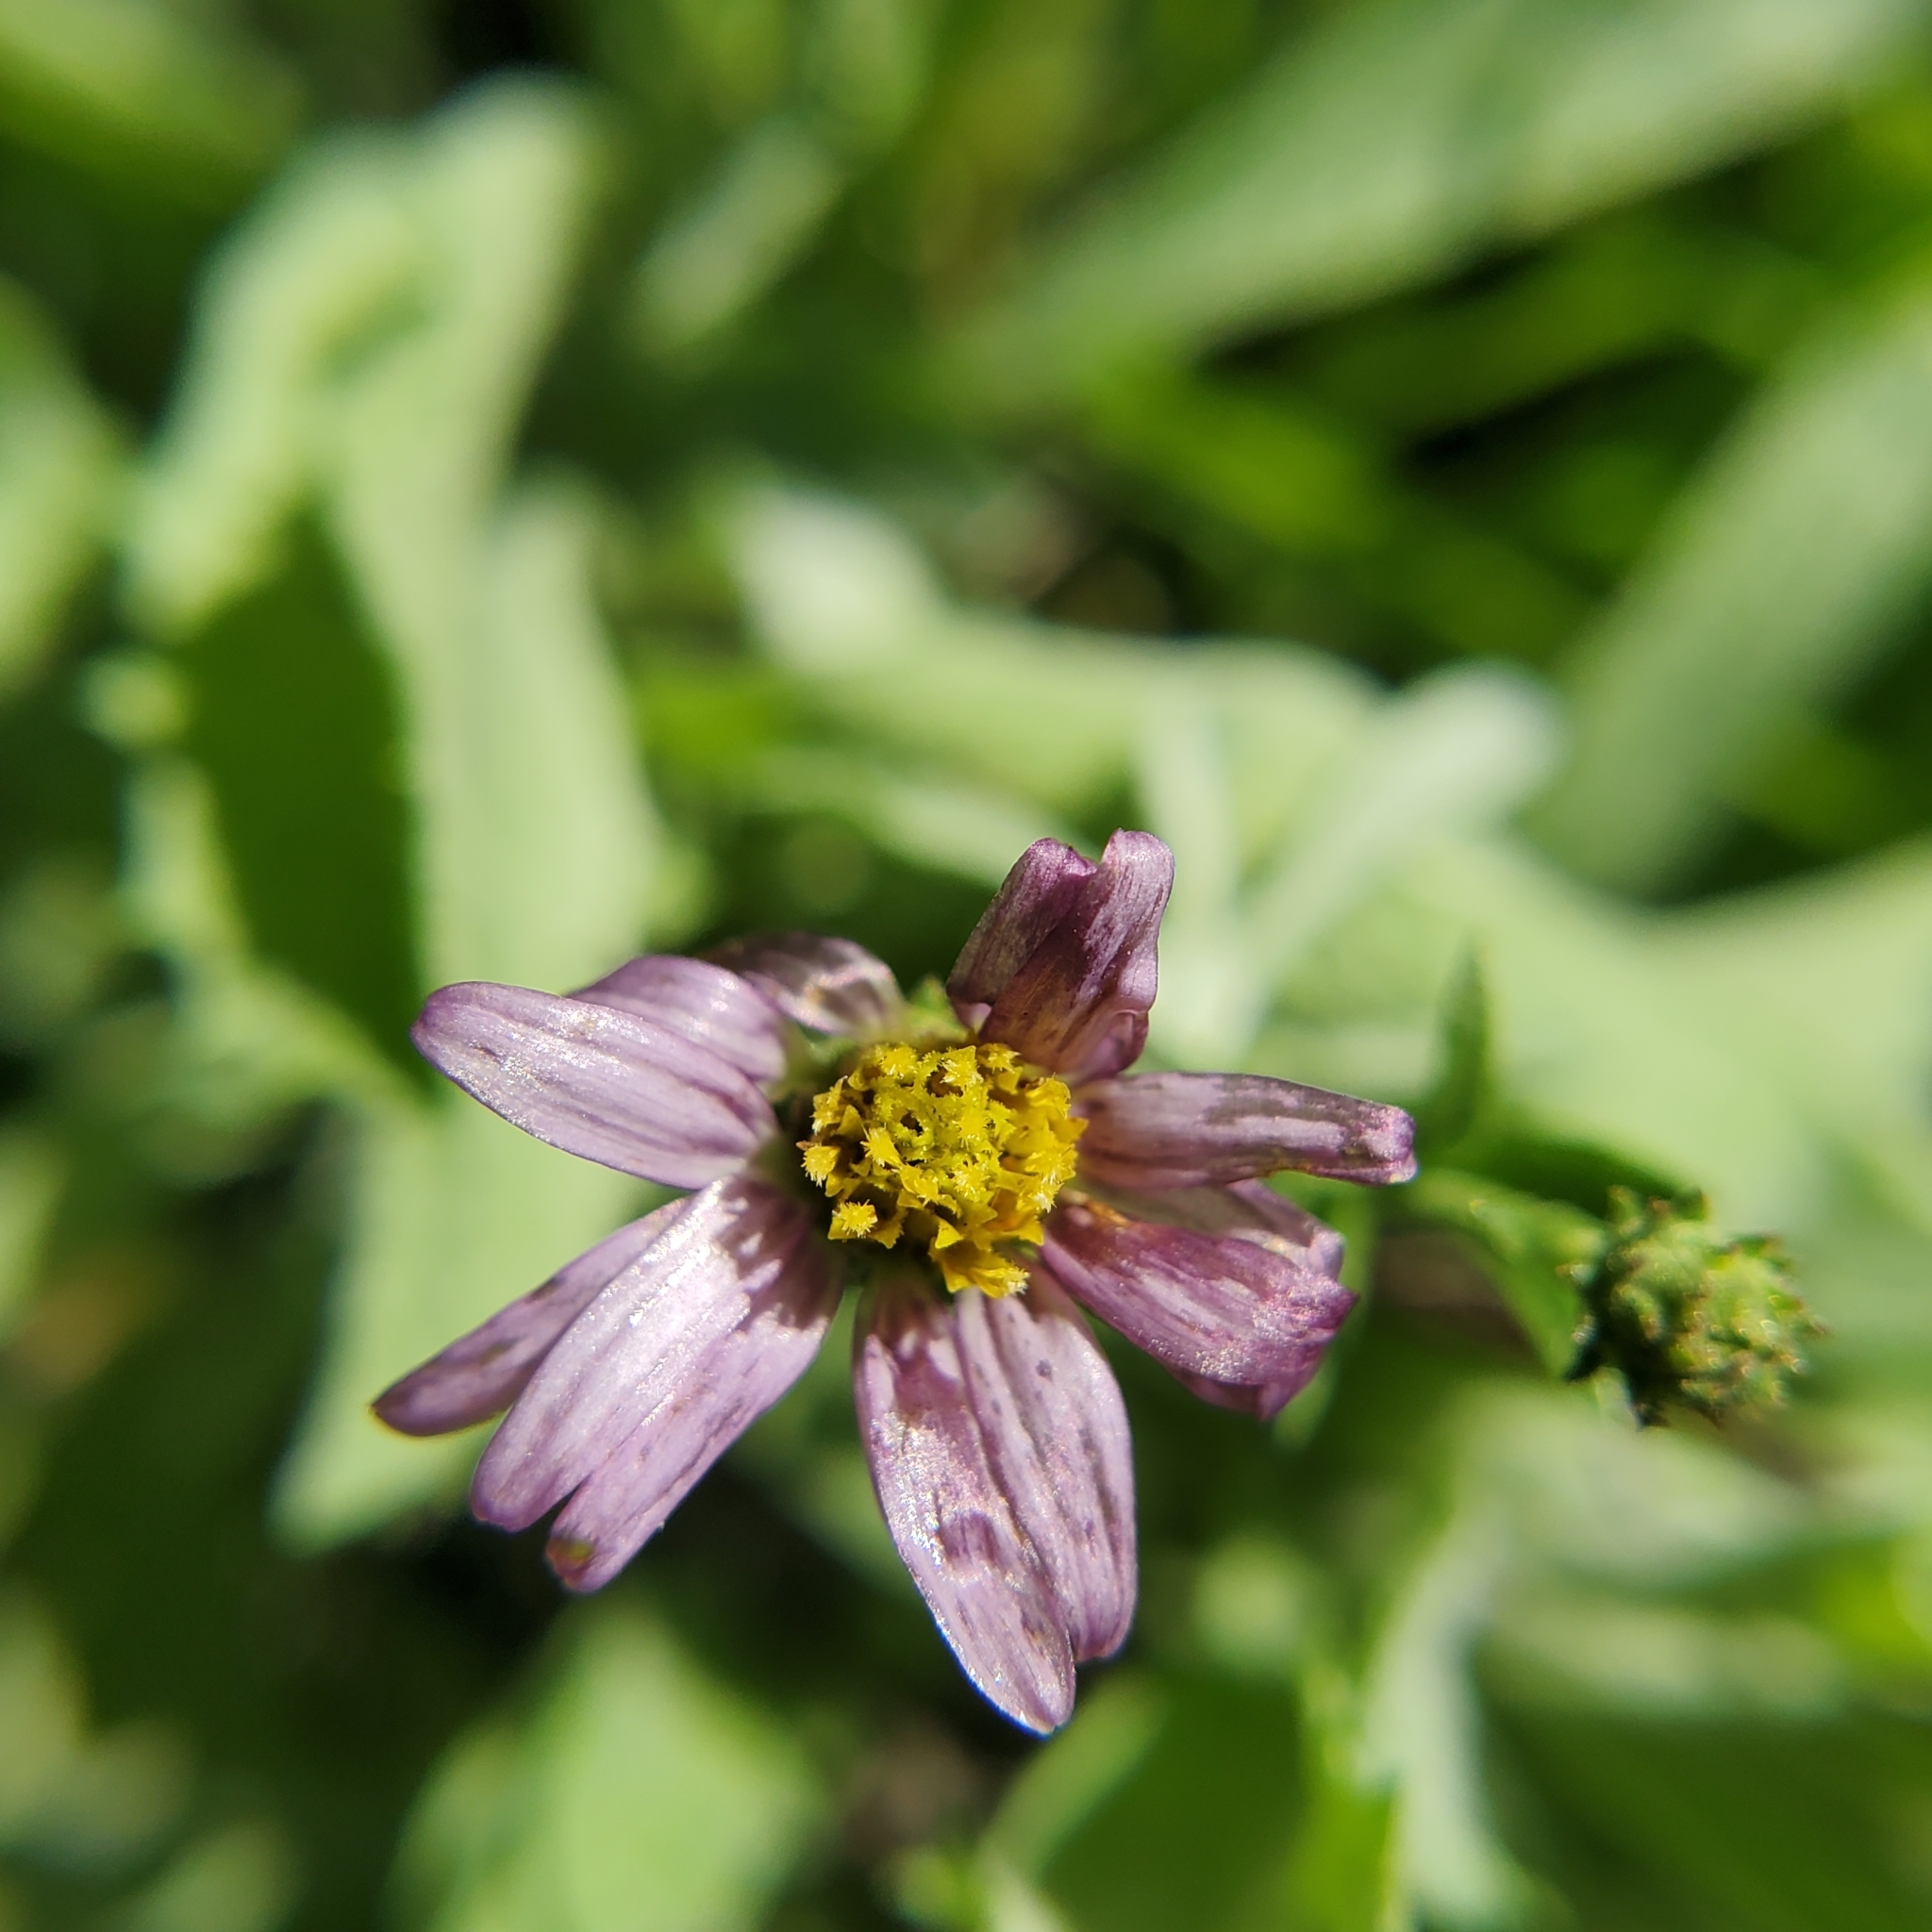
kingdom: Plantae
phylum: Tracheophyta
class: Magnoliopsida
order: Asterales
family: Asteraceae
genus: Corethrogyne
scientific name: Corethrogyne filaginifolia
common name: Sand-aster
